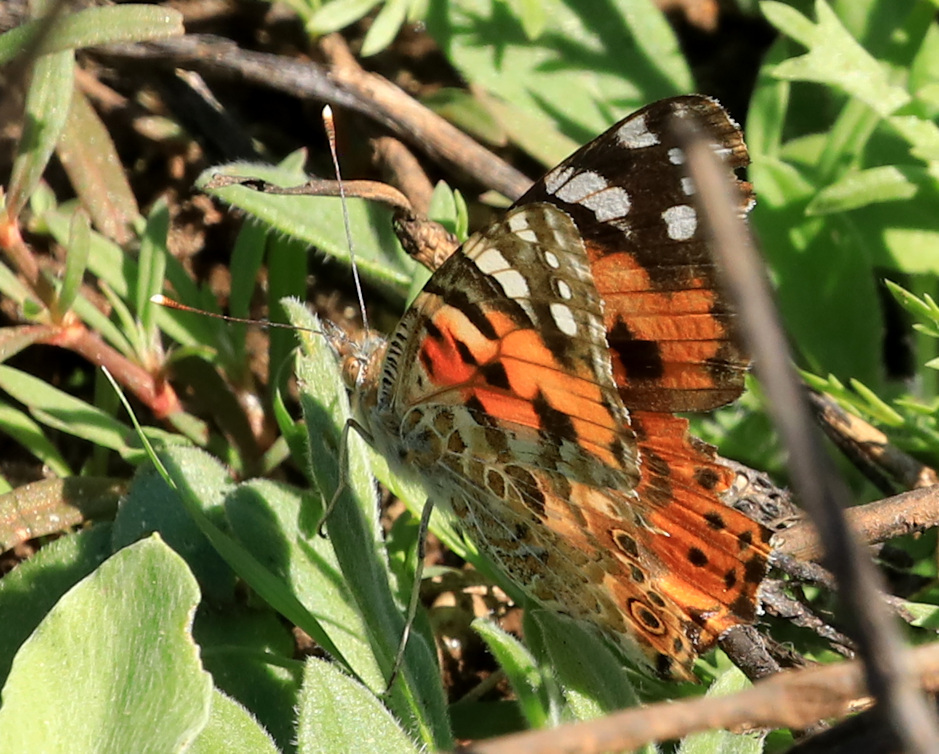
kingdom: Animalia
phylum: Arthropoda
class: Insecta
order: Lepidoptera
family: Nymphalidae
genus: Vanessa
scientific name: Vanessa cardui
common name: Painted lady
